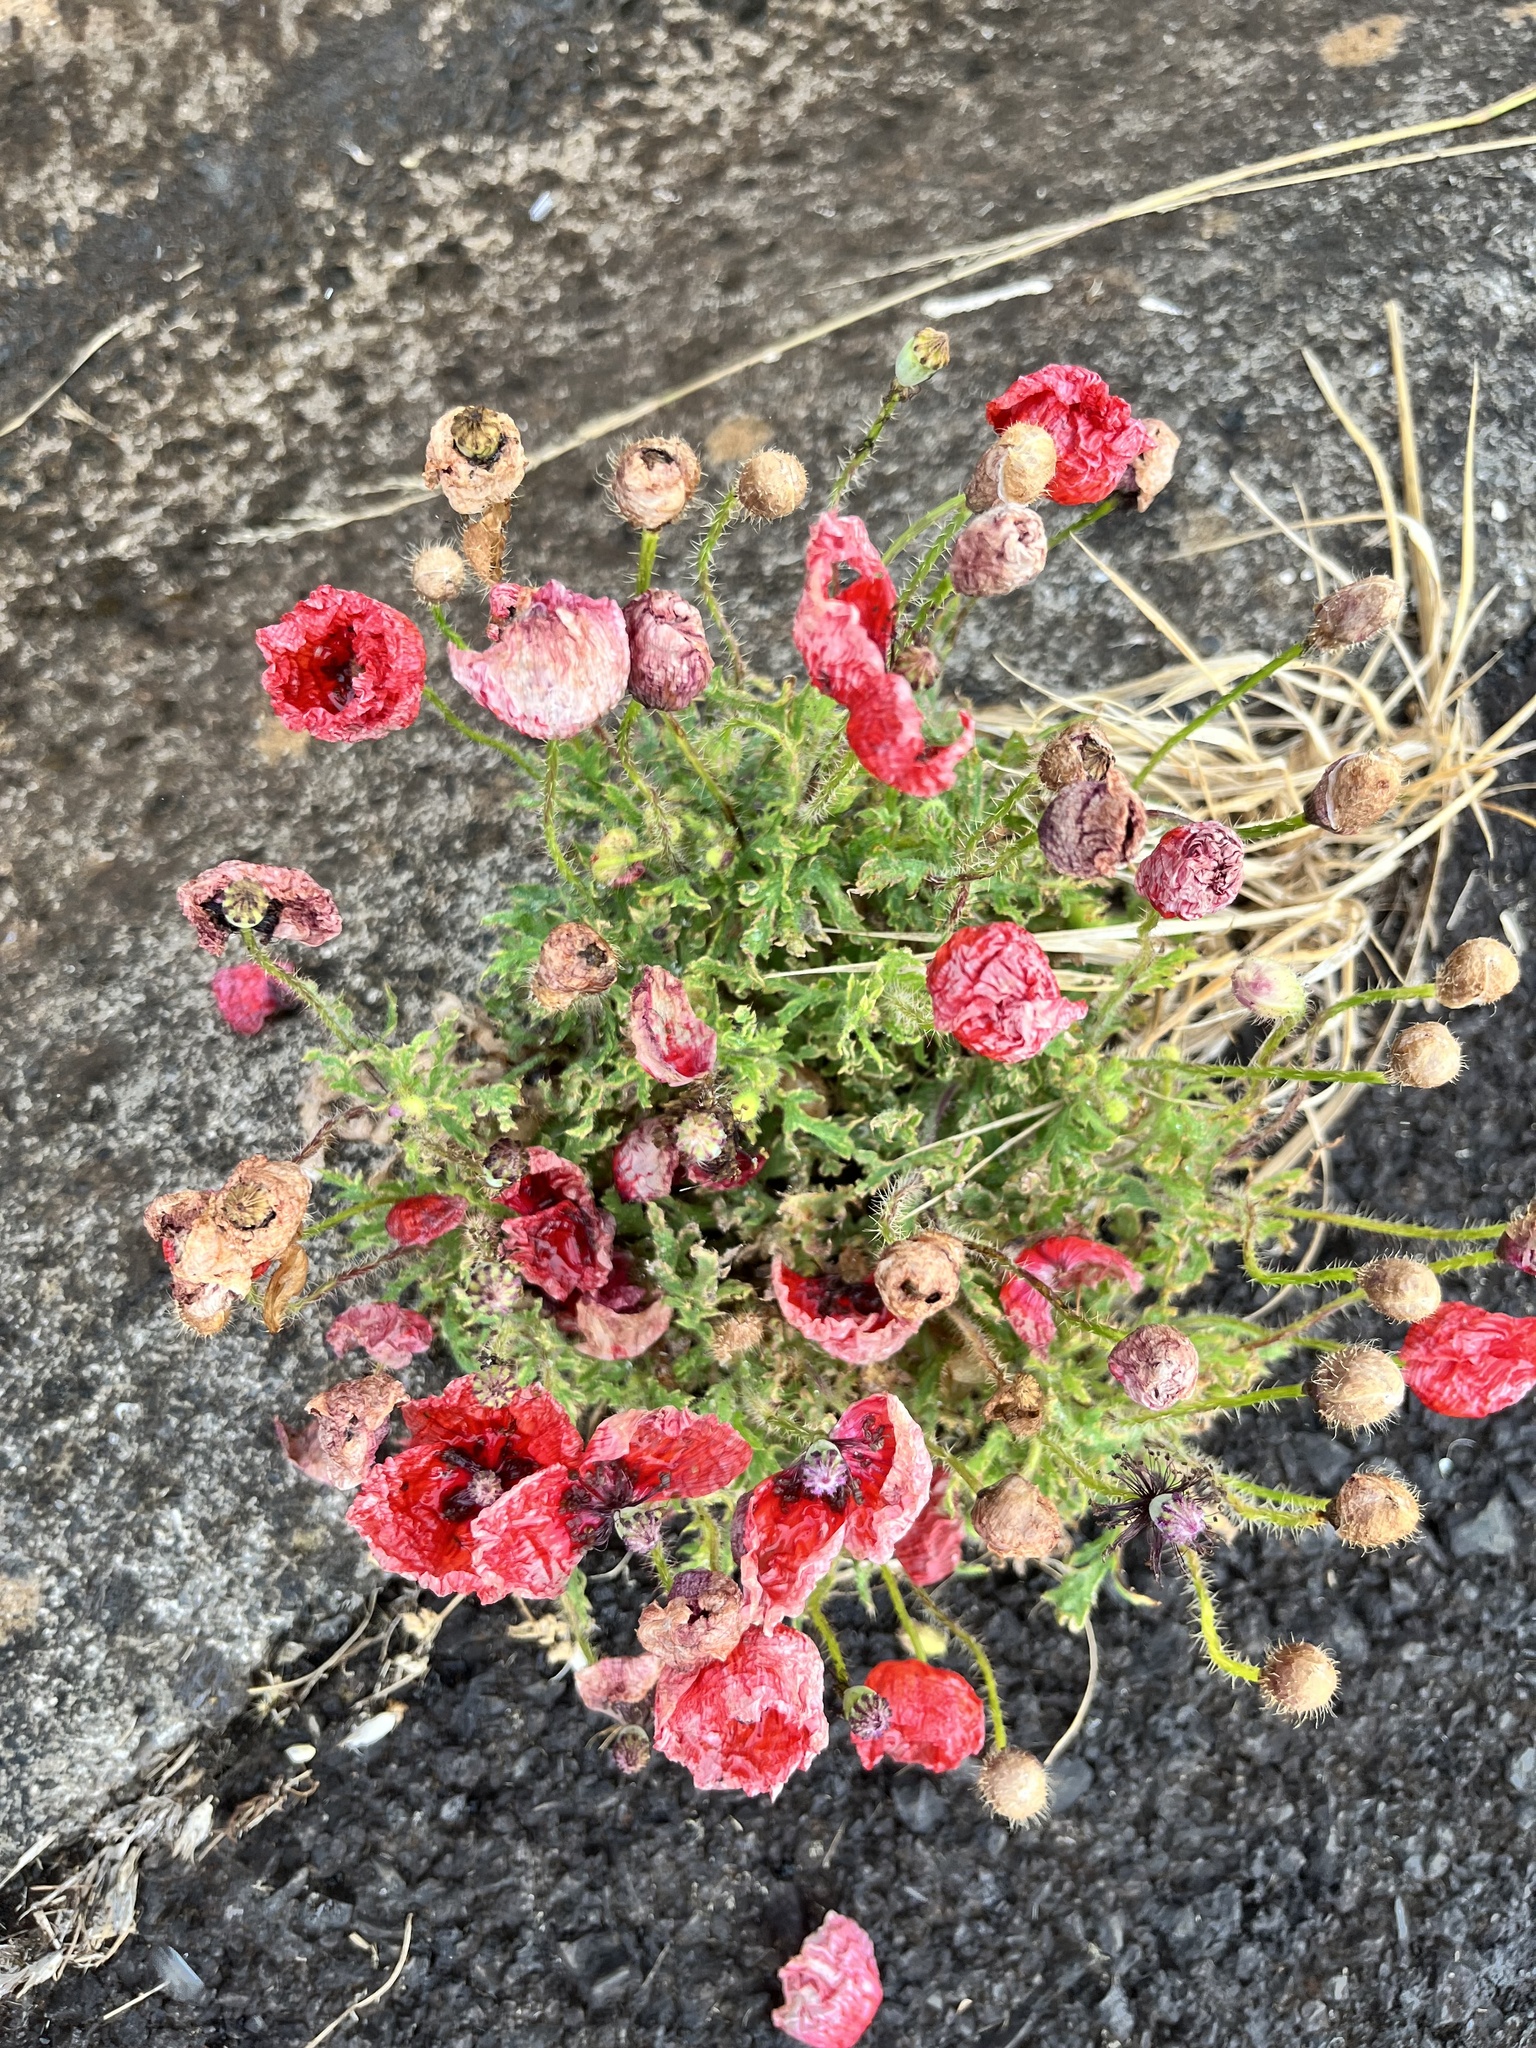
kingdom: Plantae
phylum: Tracheophyta
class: Magnoliopsida
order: Ranunculales
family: Papaveraceae
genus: Papaver
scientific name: Papaver rhoeas
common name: Corn poppy
